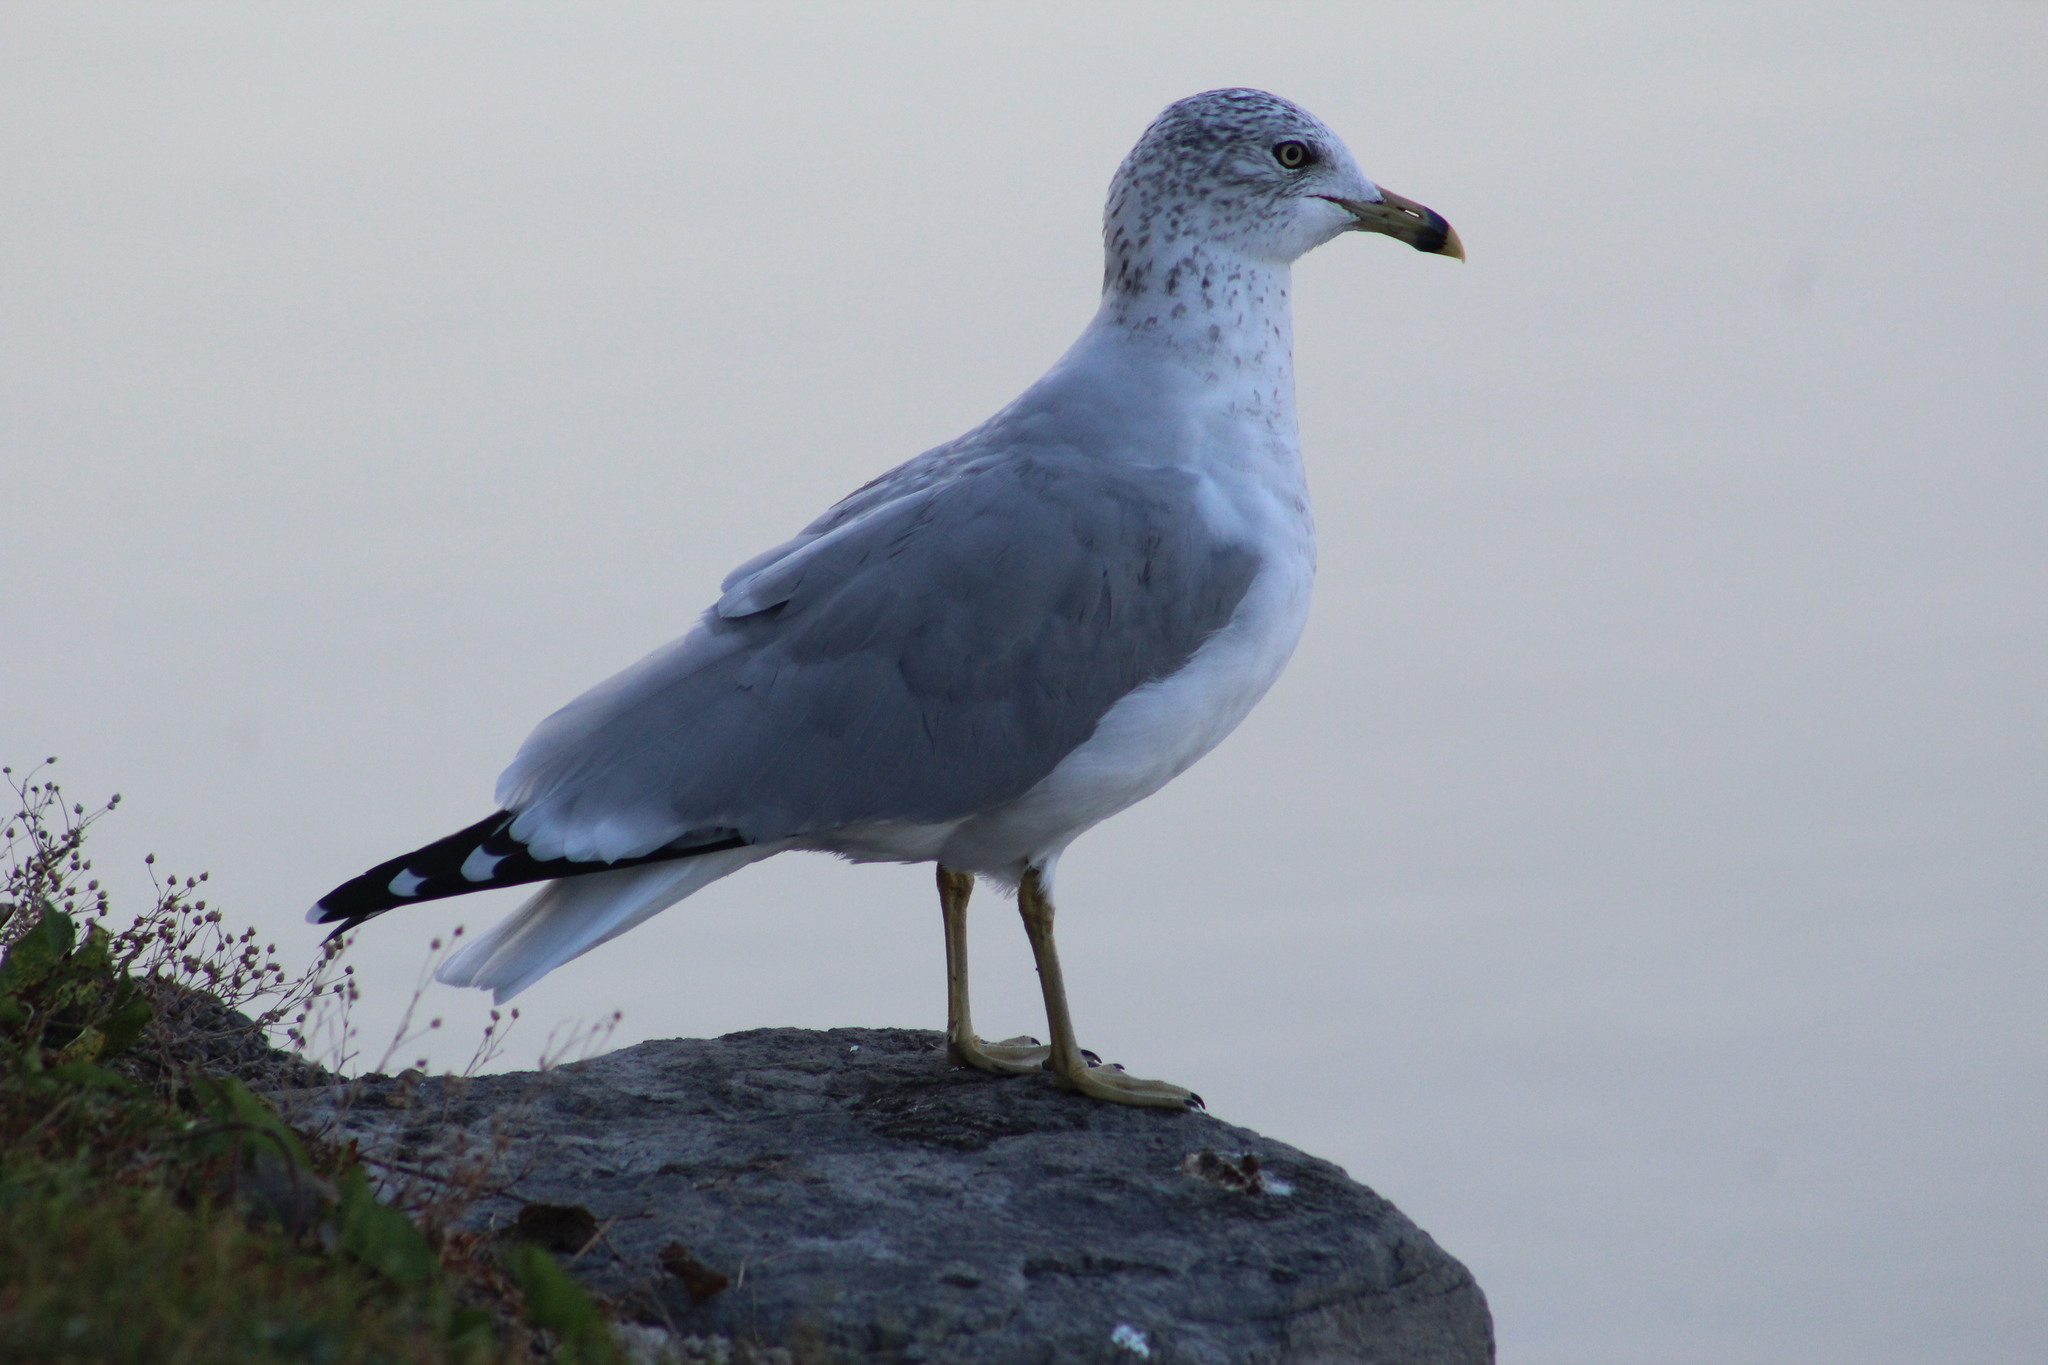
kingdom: Animalia
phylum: Chordata
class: Aves
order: Charadriiformes
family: Laridae
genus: Larus
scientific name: Larus delawarensis
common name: Ring-billed gull
